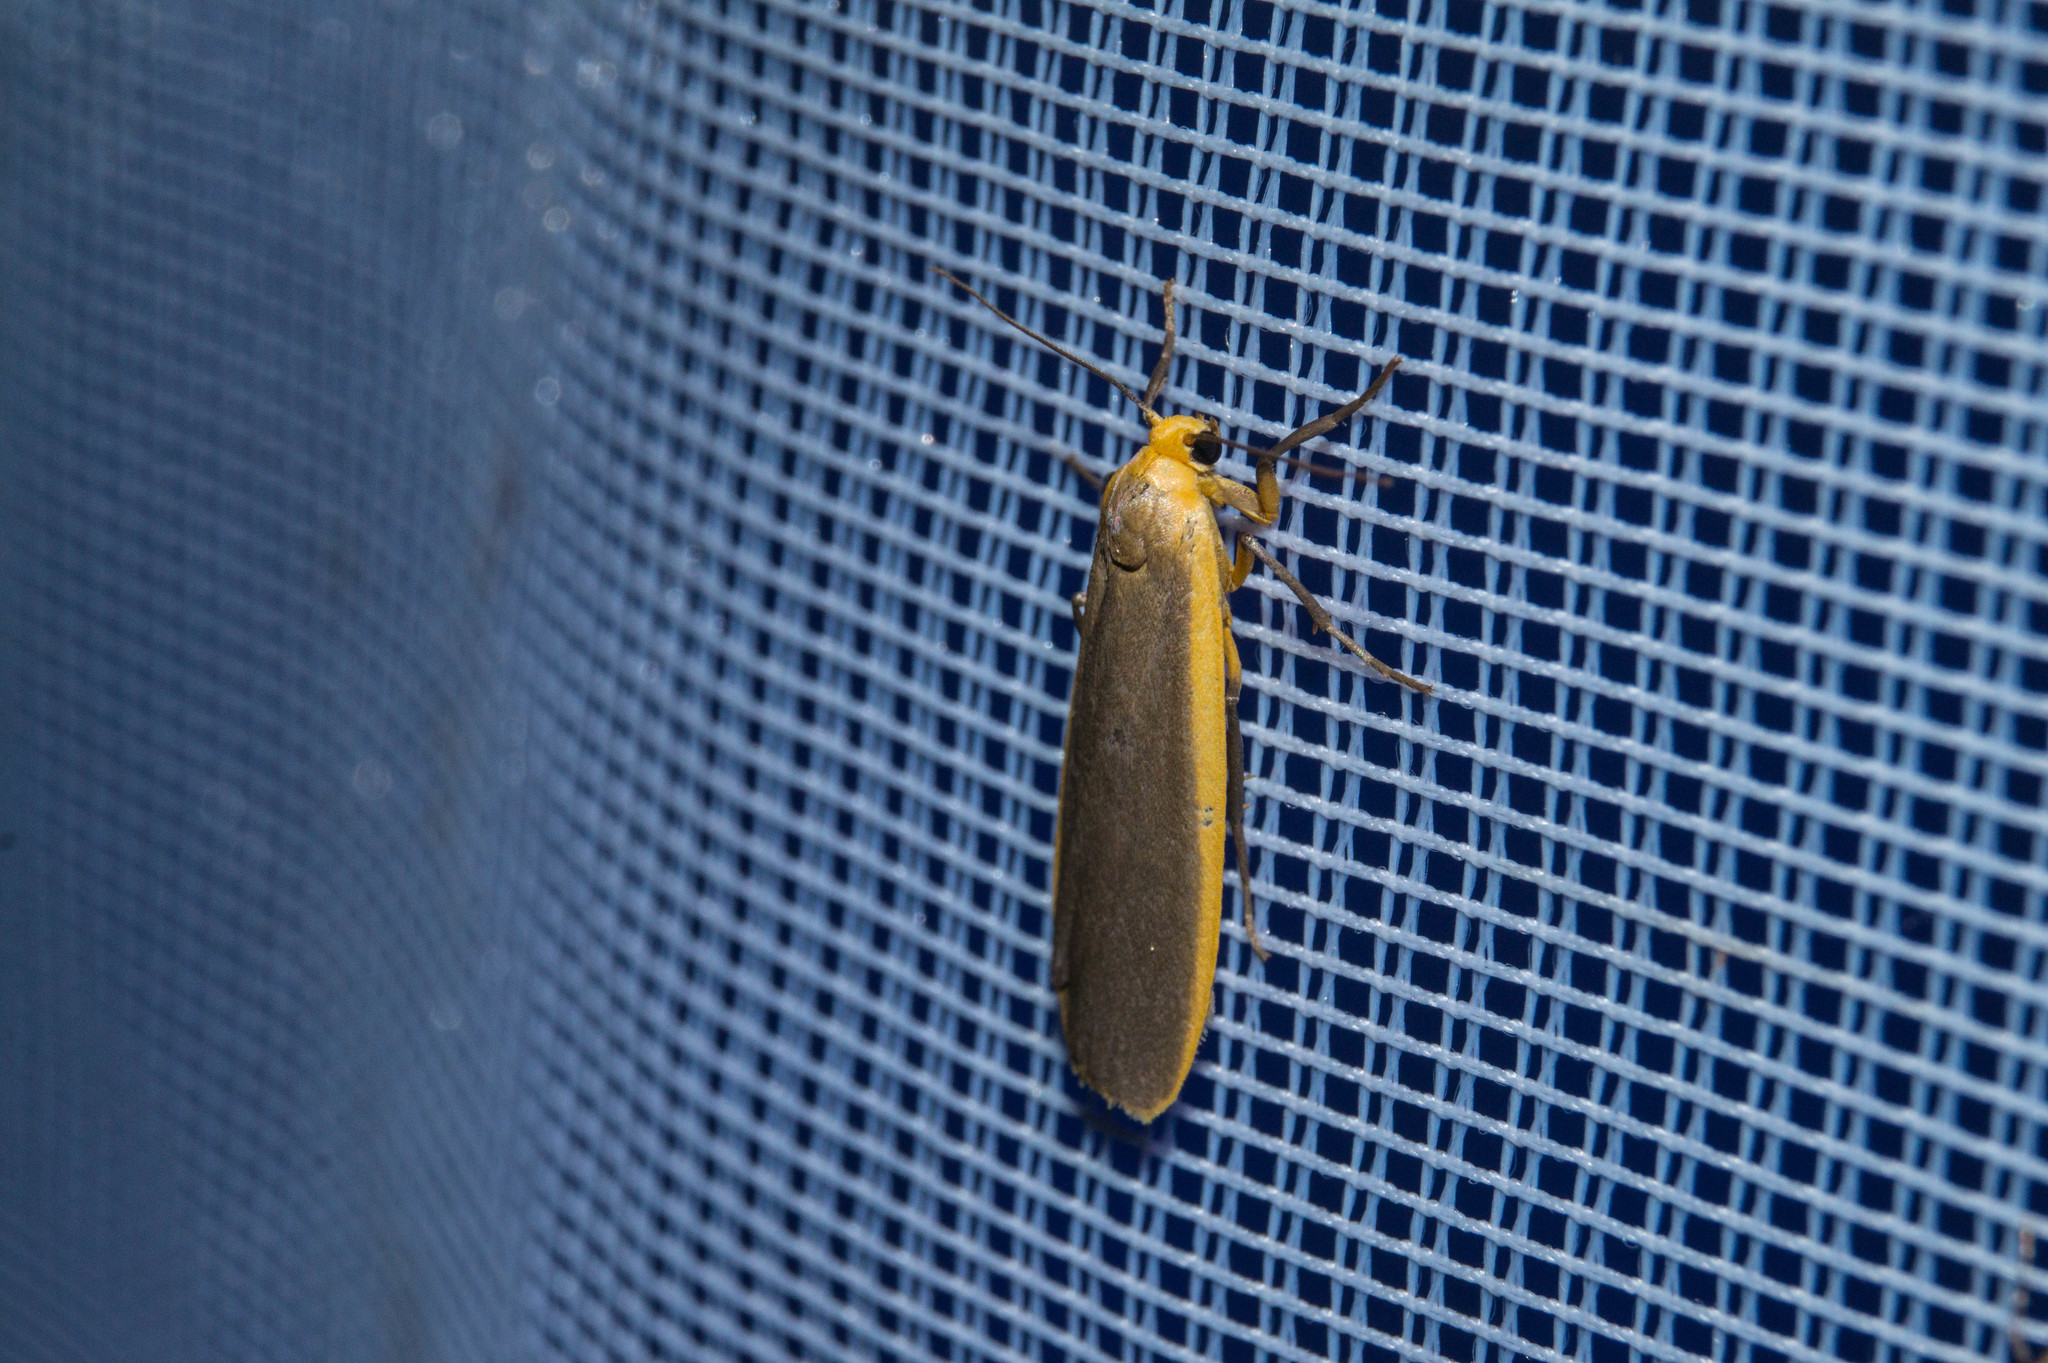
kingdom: Animalia
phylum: Arthropoda
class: Insecta
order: Lepidoptera
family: Erebidae
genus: Nyea
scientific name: Nyea lurideola
